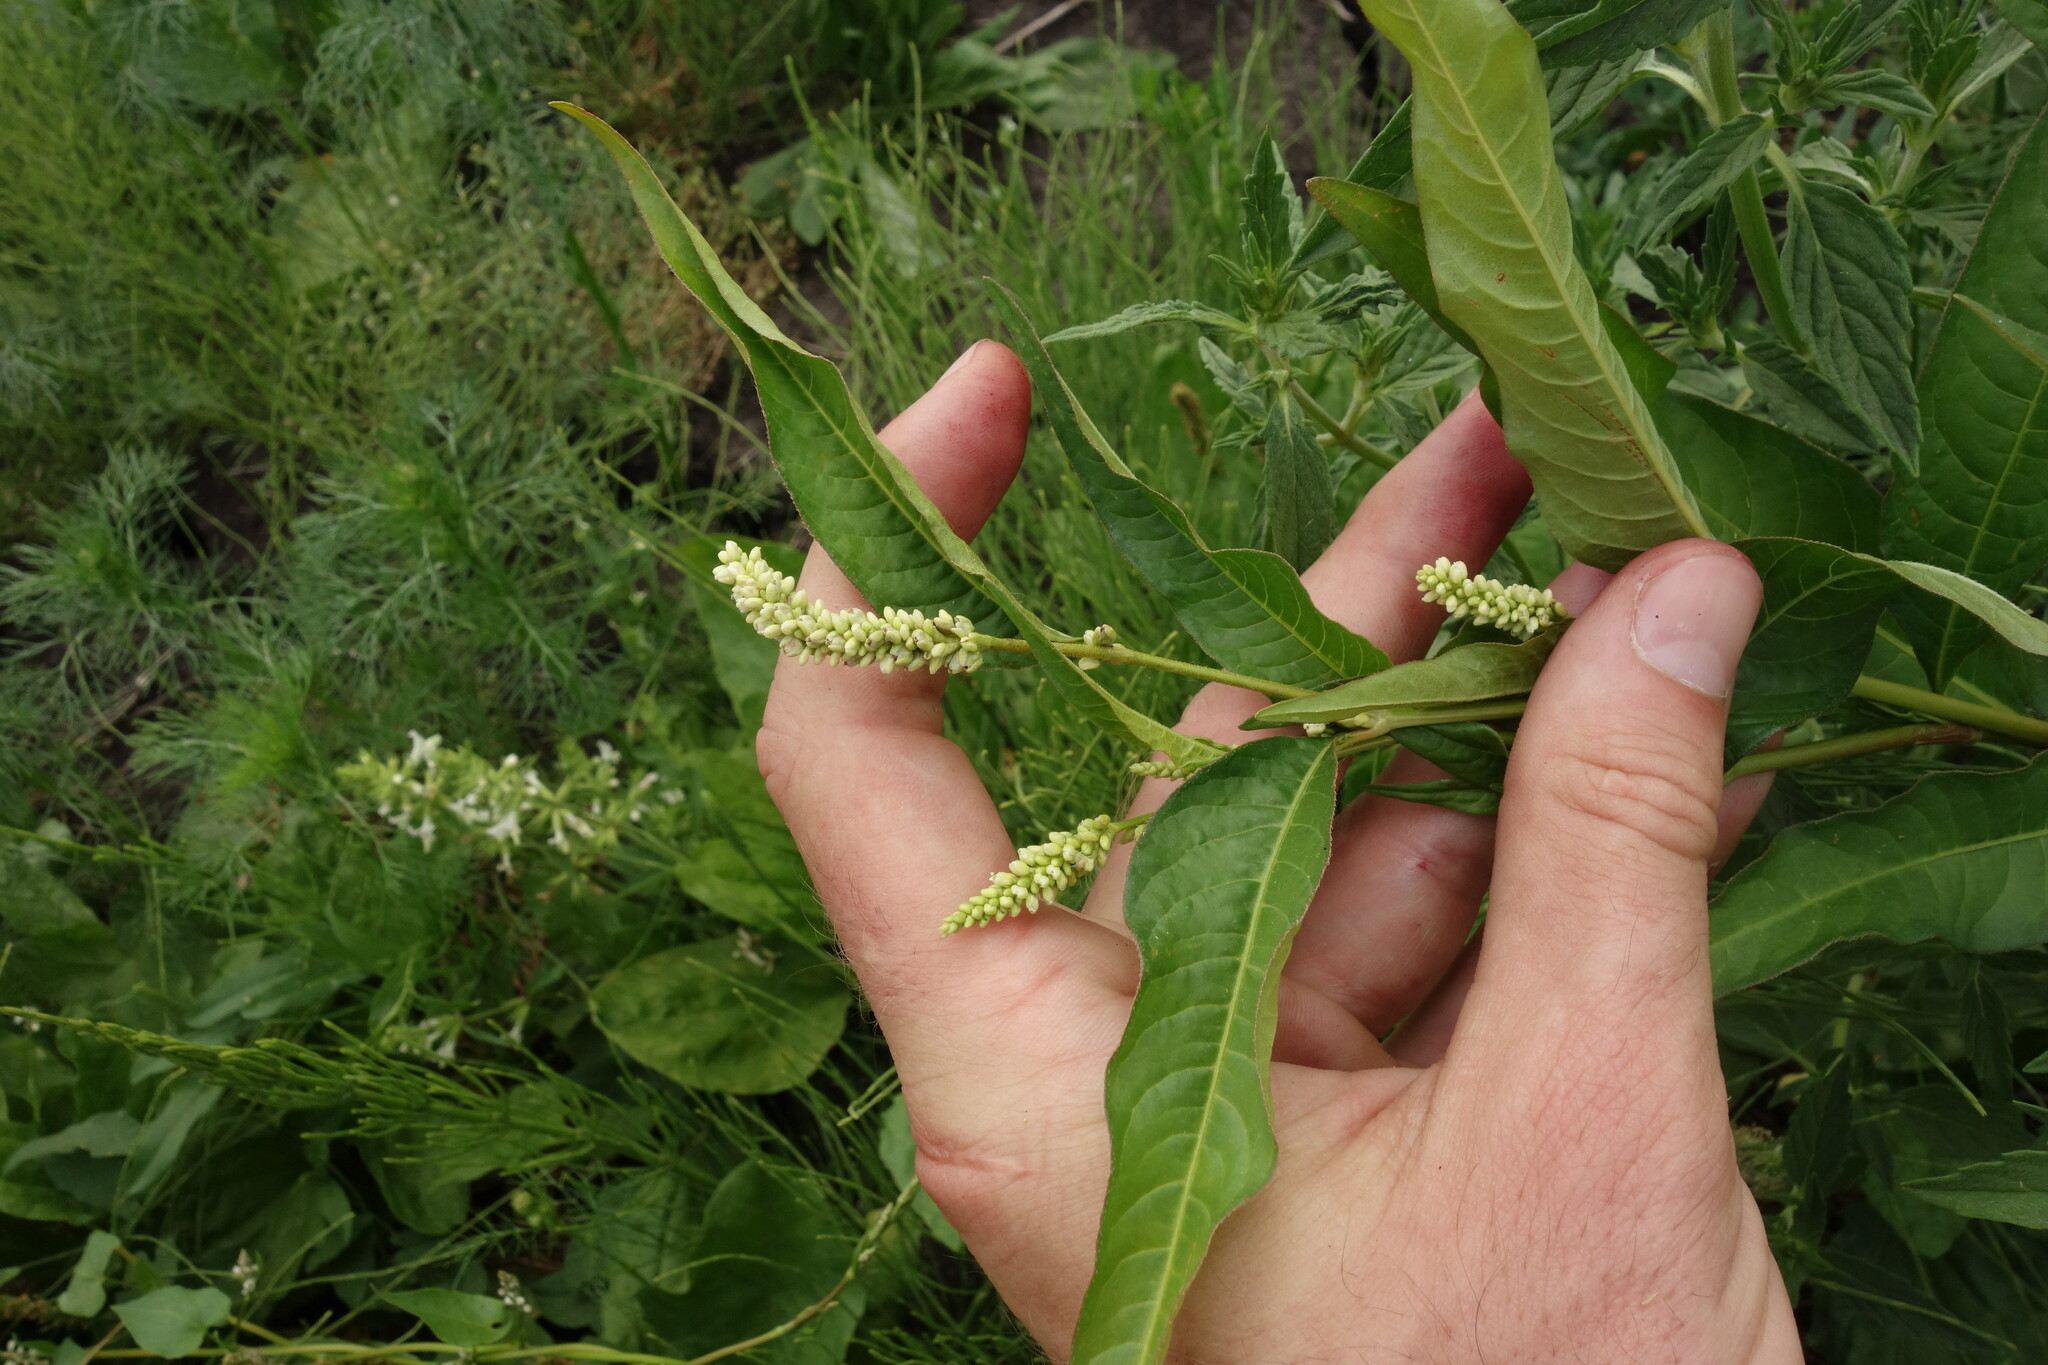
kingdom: Plantae
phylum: Tracheophyta
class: Magnoliopsida
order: Caryophyllales
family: Polygonaceae
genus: Persicaria
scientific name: Persicaria lapathifolia
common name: Curlytop knotweed
